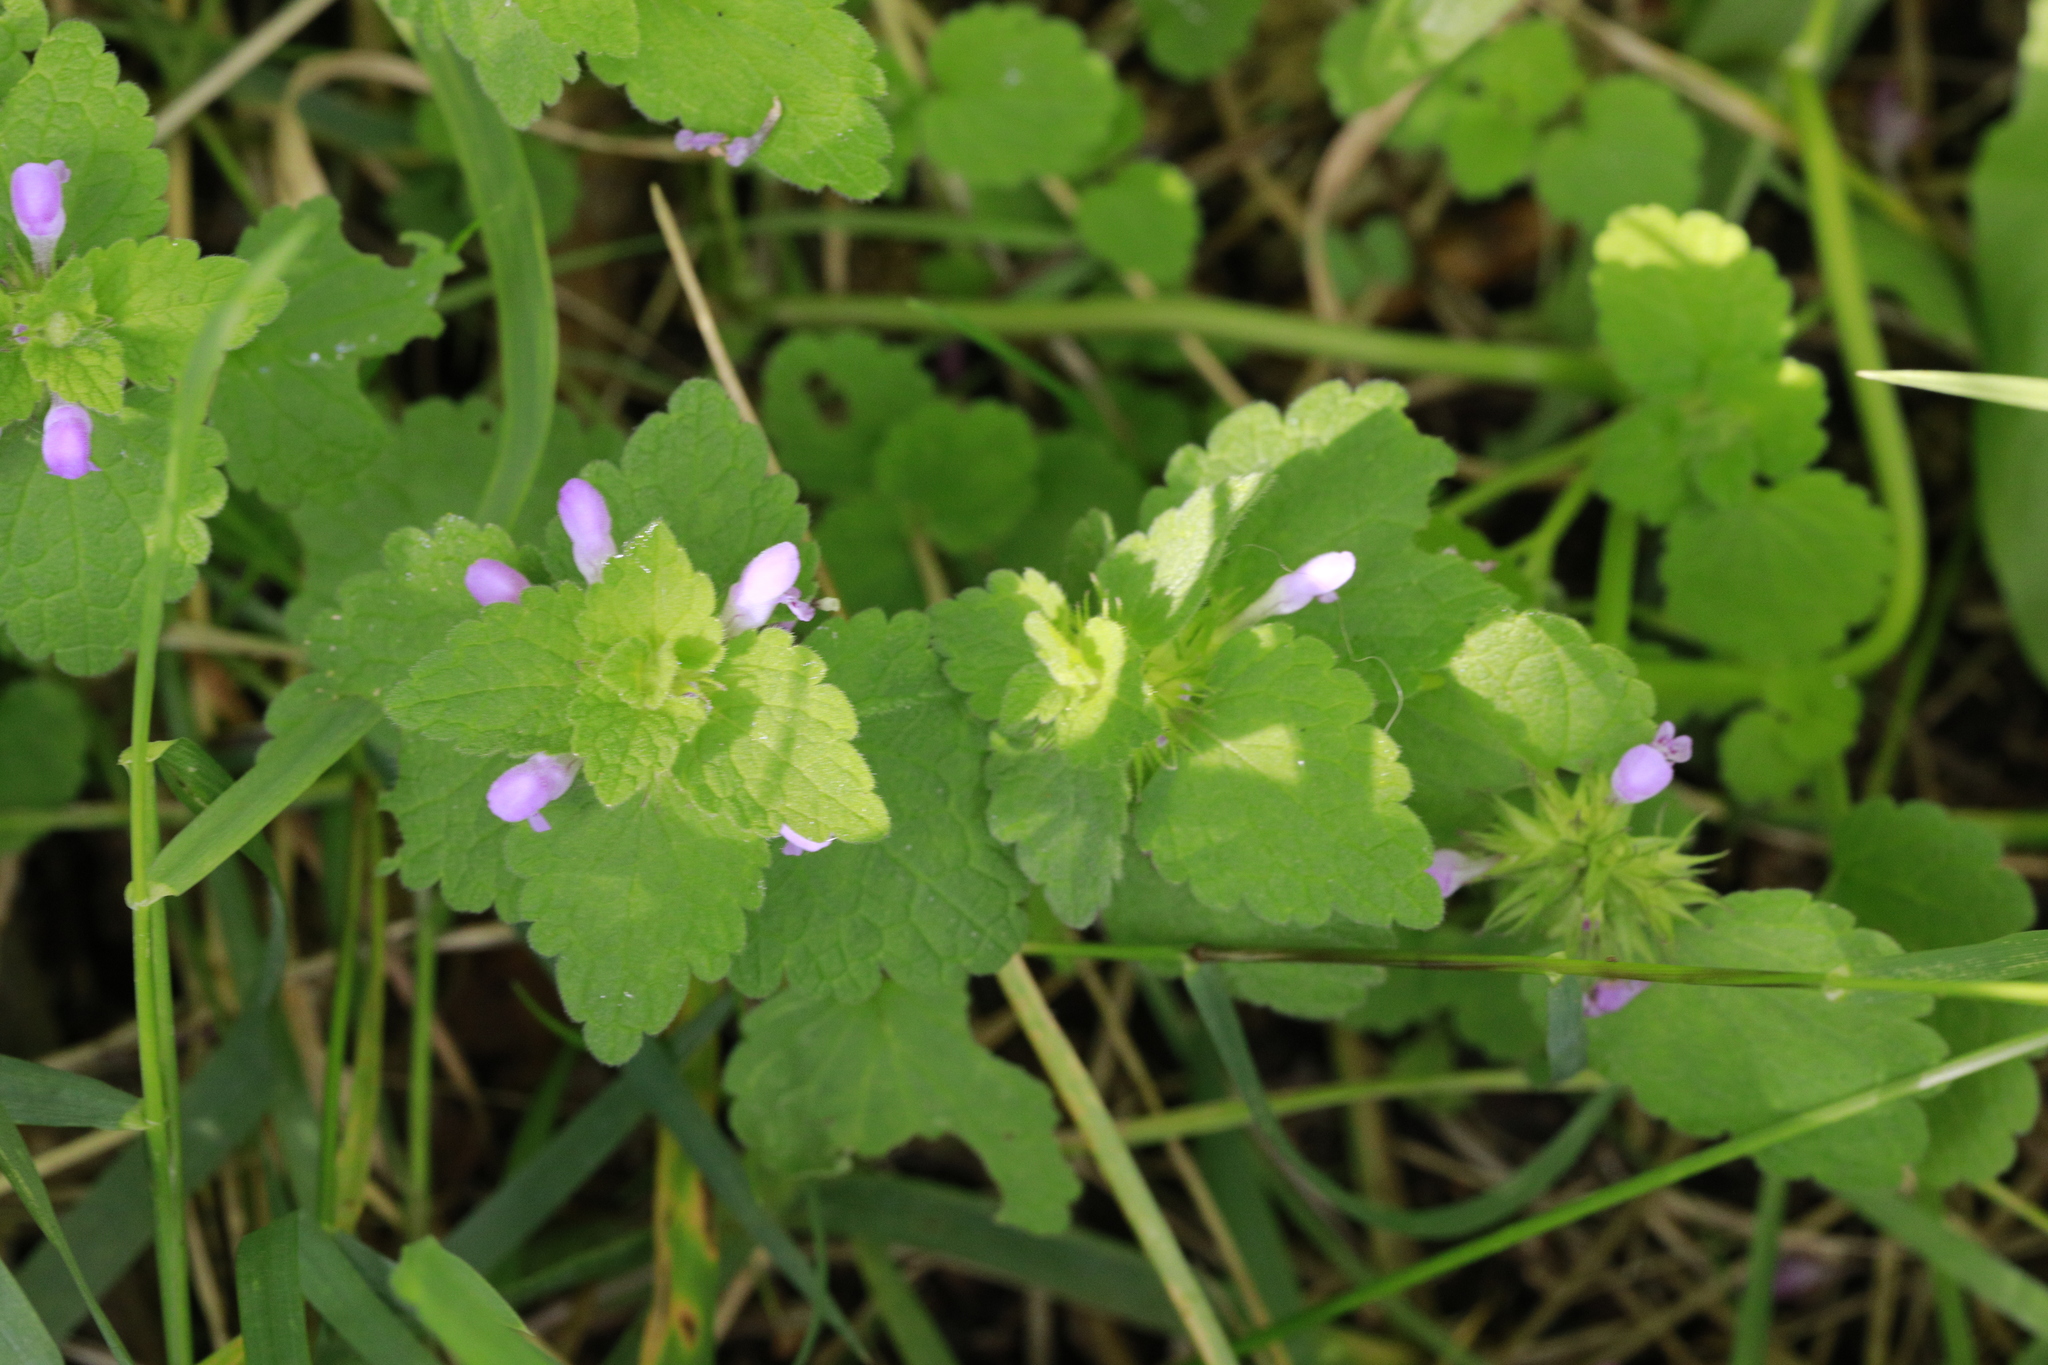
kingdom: Plantae
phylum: Tracheophyta
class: Magnoliopsida
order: Lamiales
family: Lamiaceae
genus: Lamium
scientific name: Lamium purpureum
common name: Red dead-nettle
